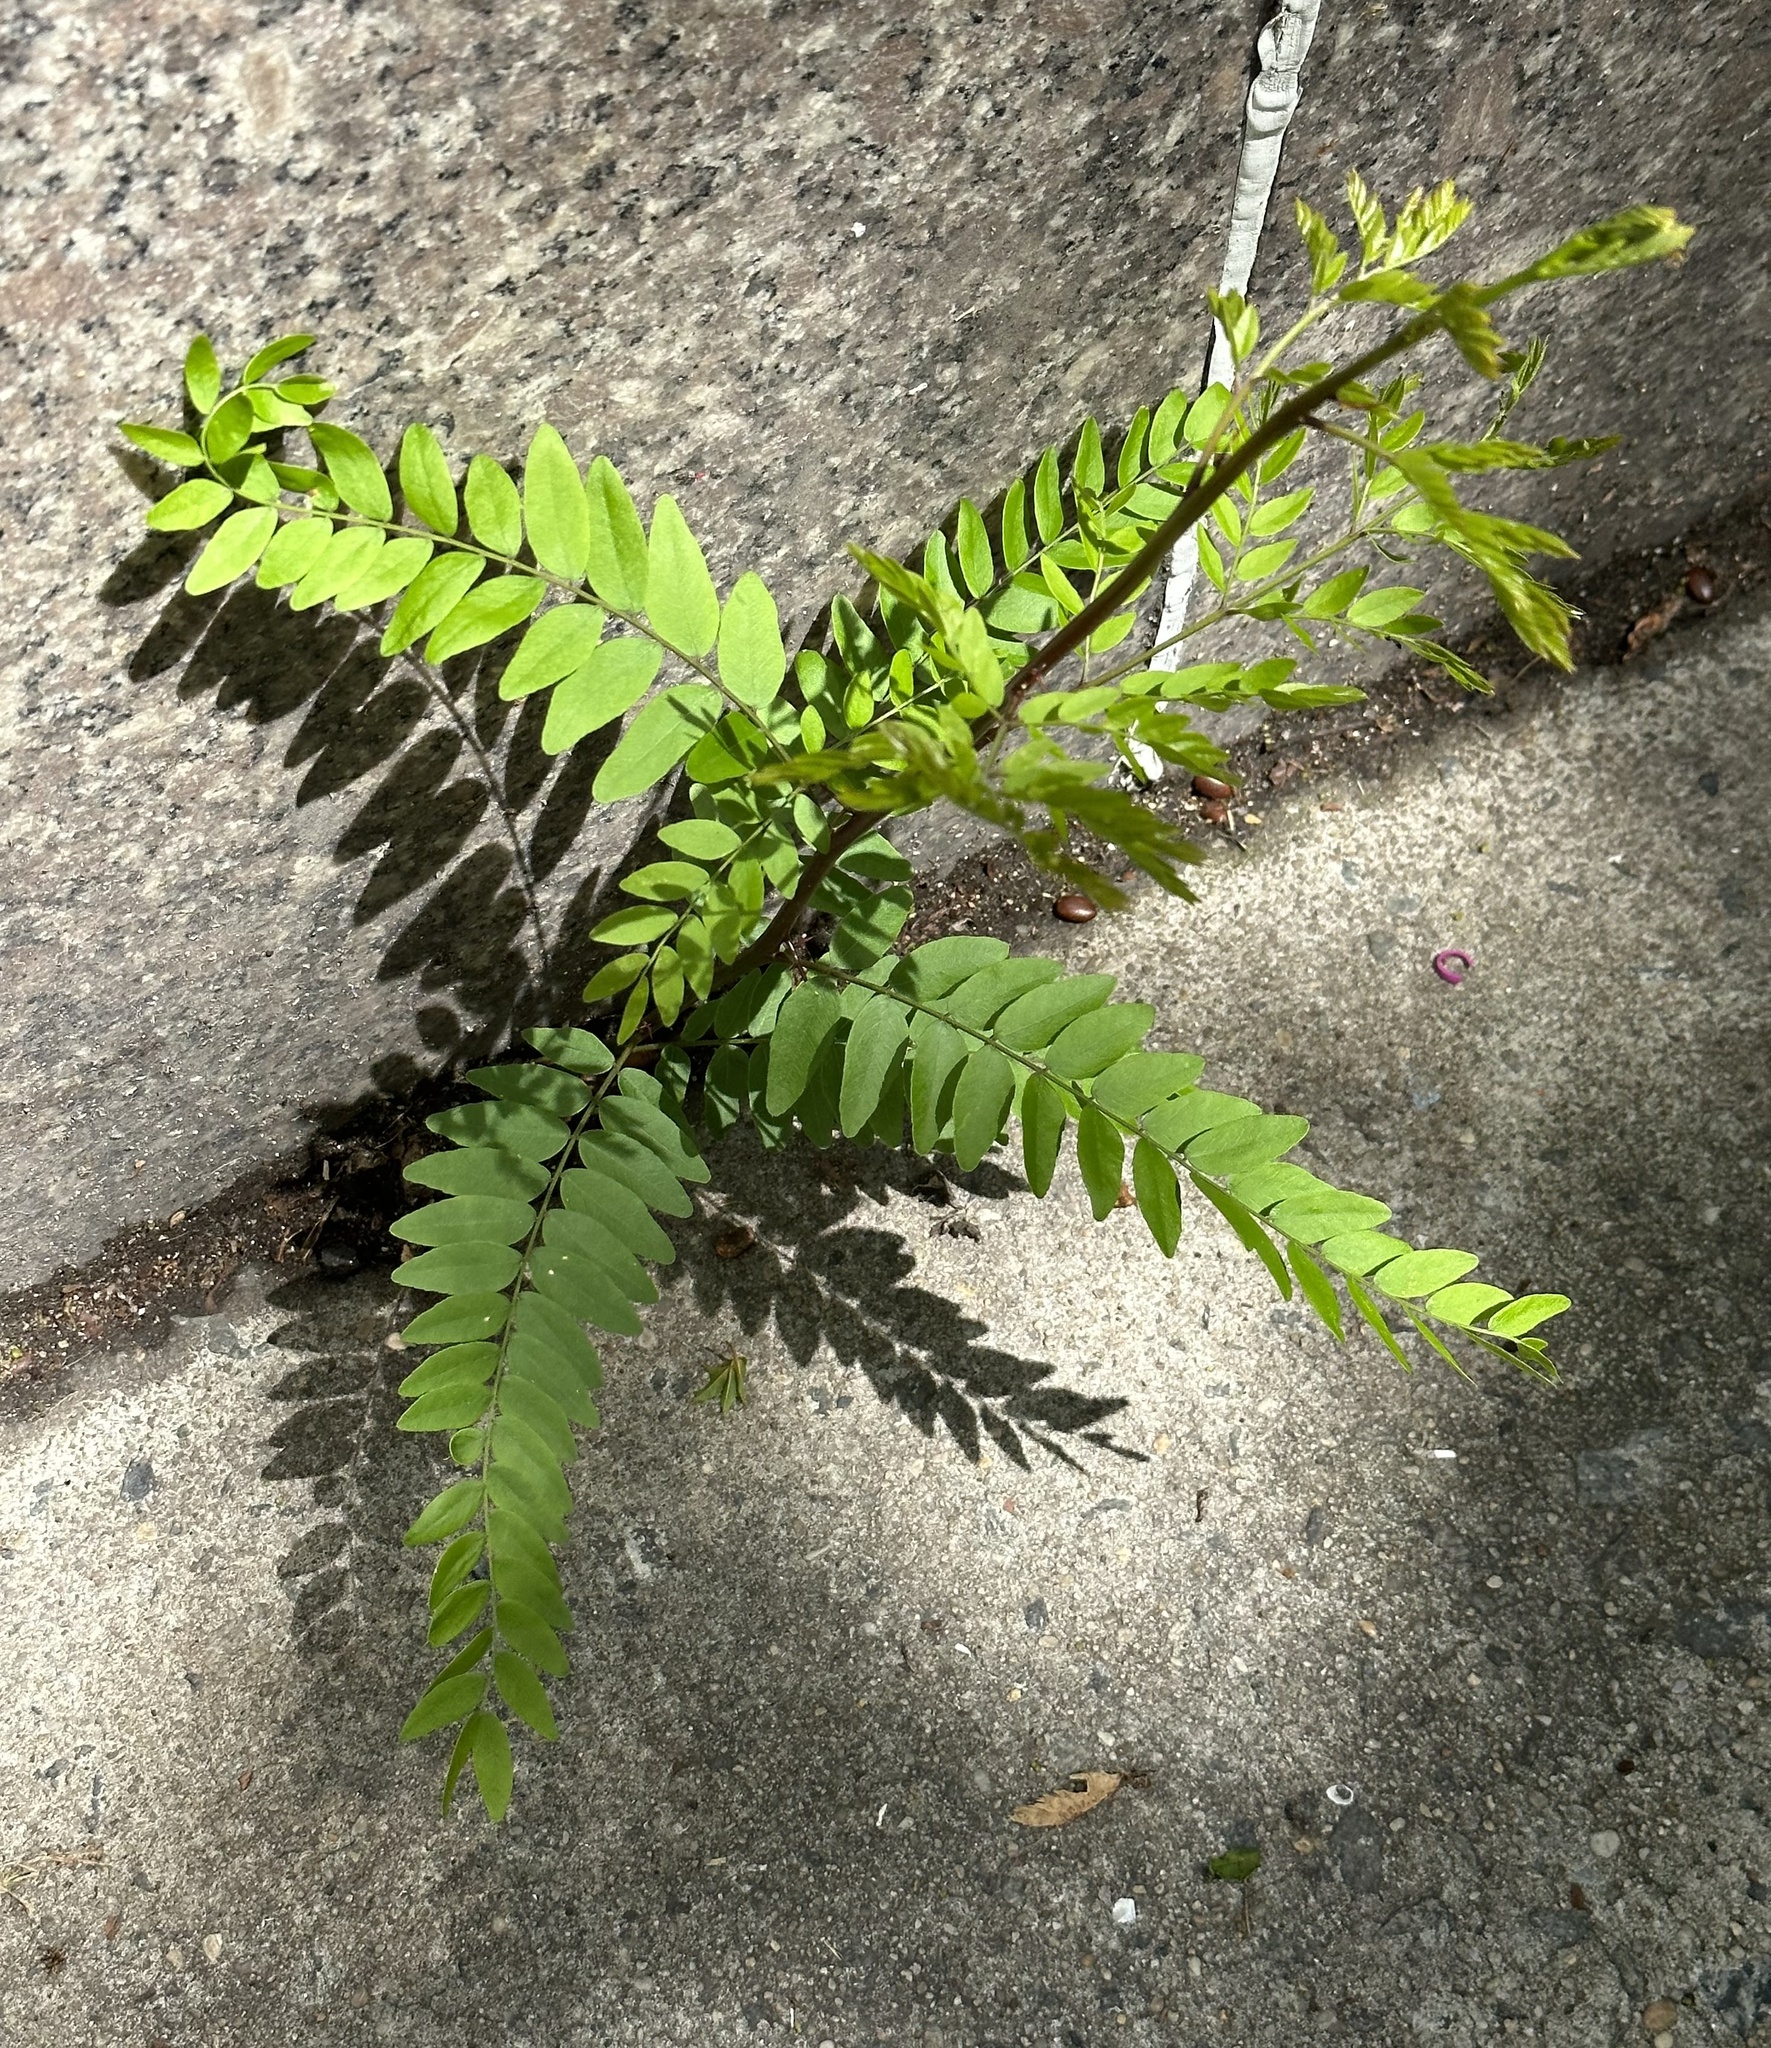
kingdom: Plantae
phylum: Tracheophyta
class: Magnoliopsida
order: Fabales
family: Fabaceae
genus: Gleditsia
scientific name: Gleditsia triacanthos
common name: Common honeylocust
